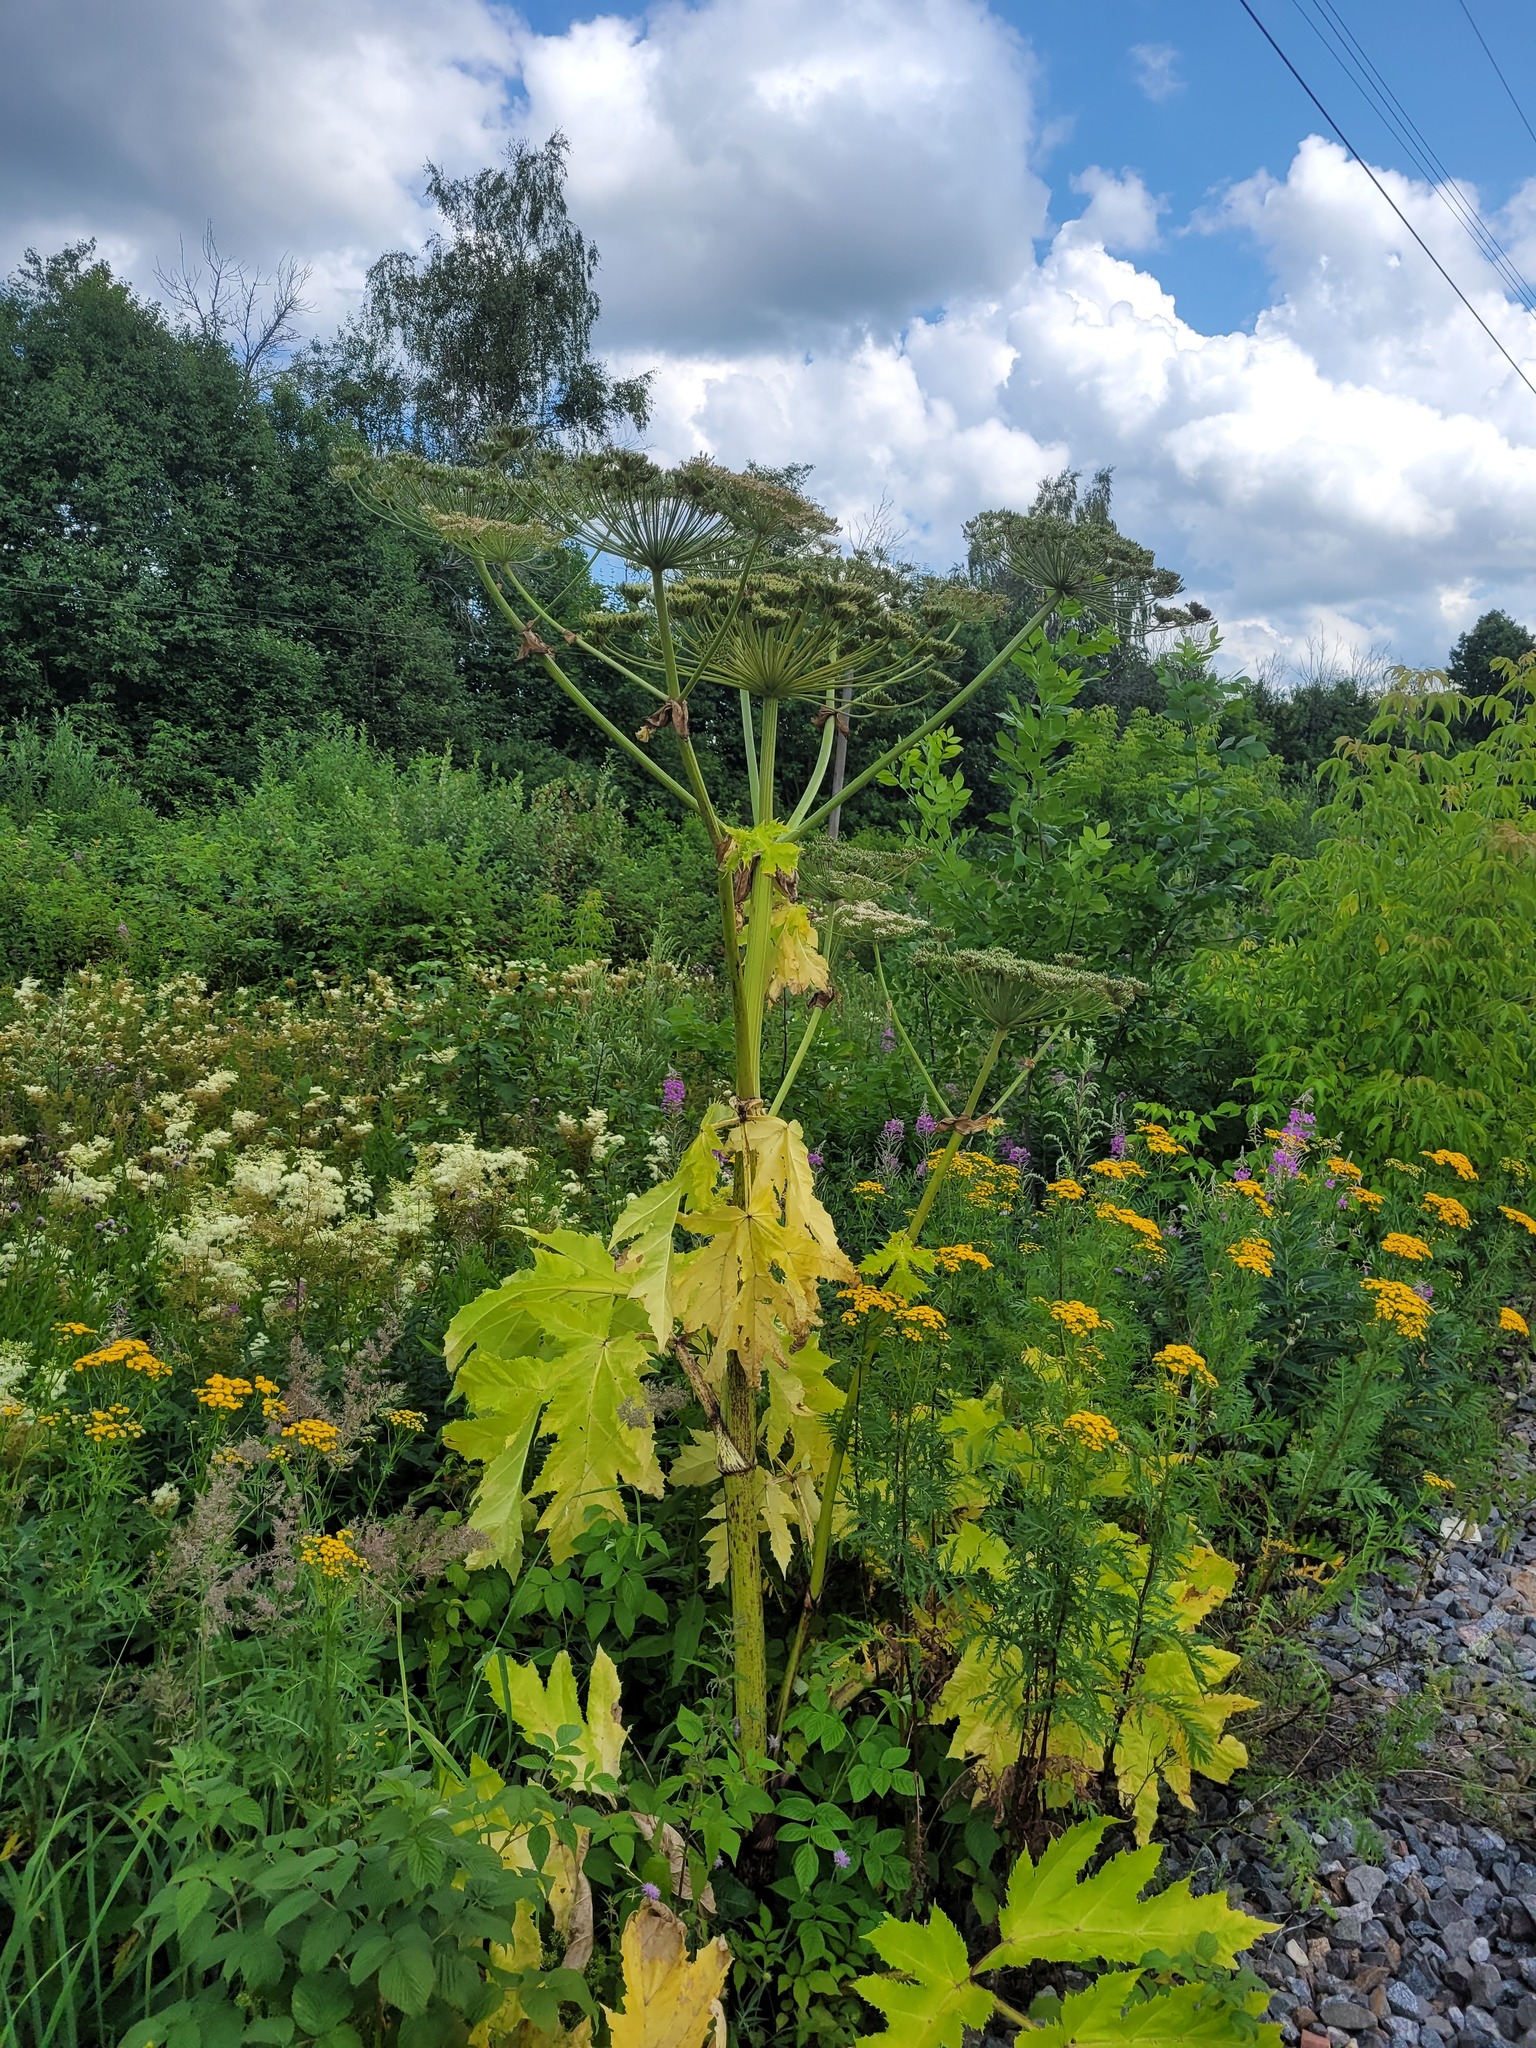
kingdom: Plantae
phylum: Tracheophyta
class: Magnoliopsida
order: Apiales
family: Apiaceae
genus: Heracleum
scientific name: Heracleum sosnowskyi
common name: Sosnowsky's hogweed
